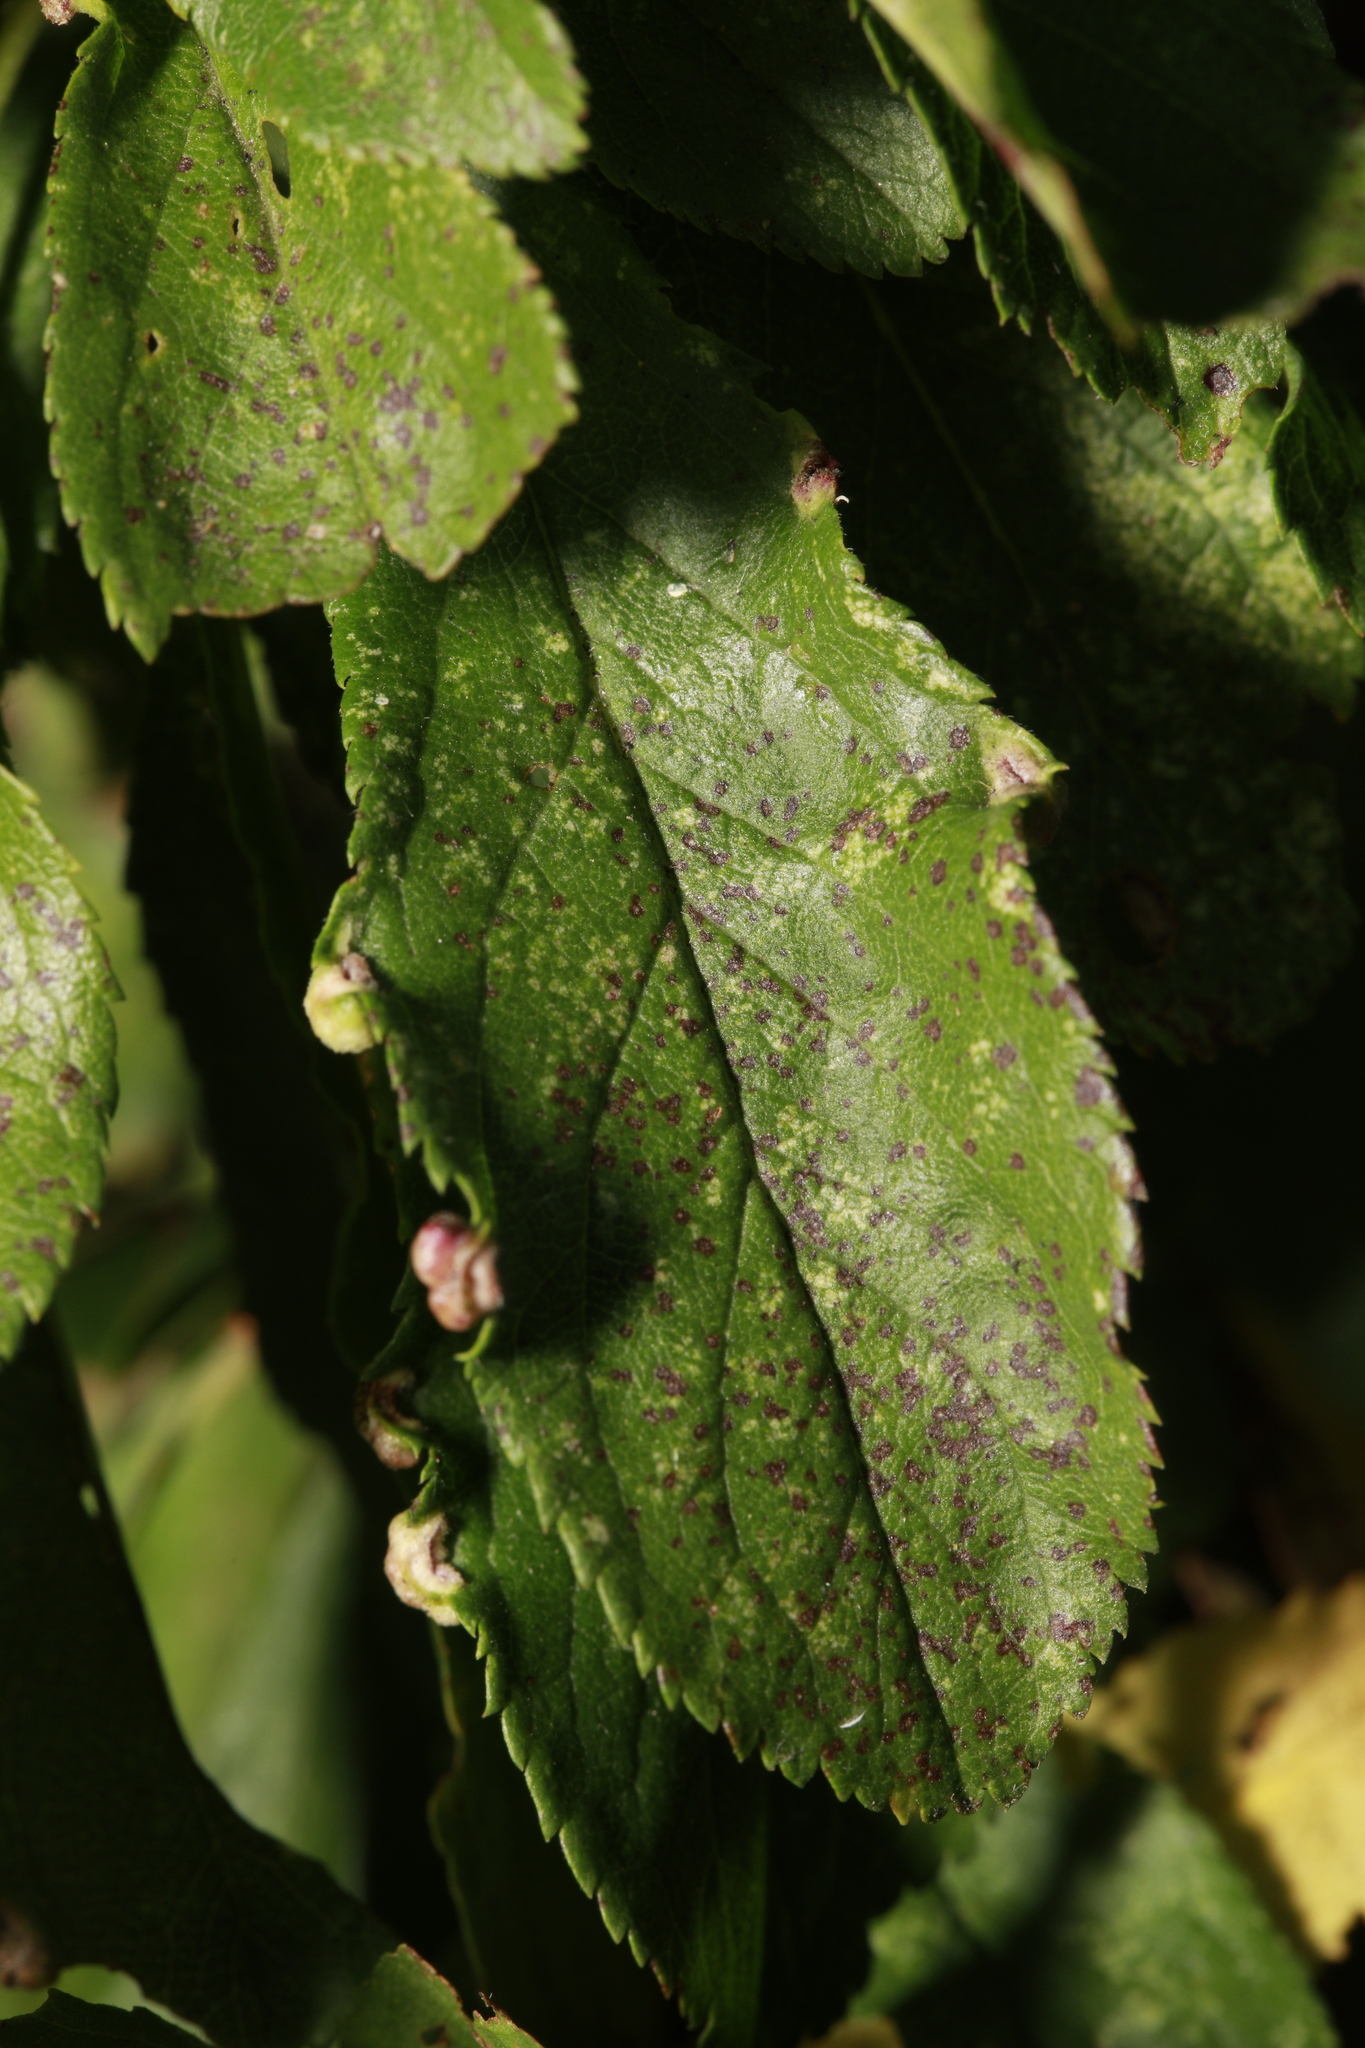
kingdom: Plantae
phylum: Tracheophyta
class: Magnoliopsida
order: Rosales
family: Rosaceae
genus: Prunus
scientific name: Prunus spinosa
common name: Blackthorn
